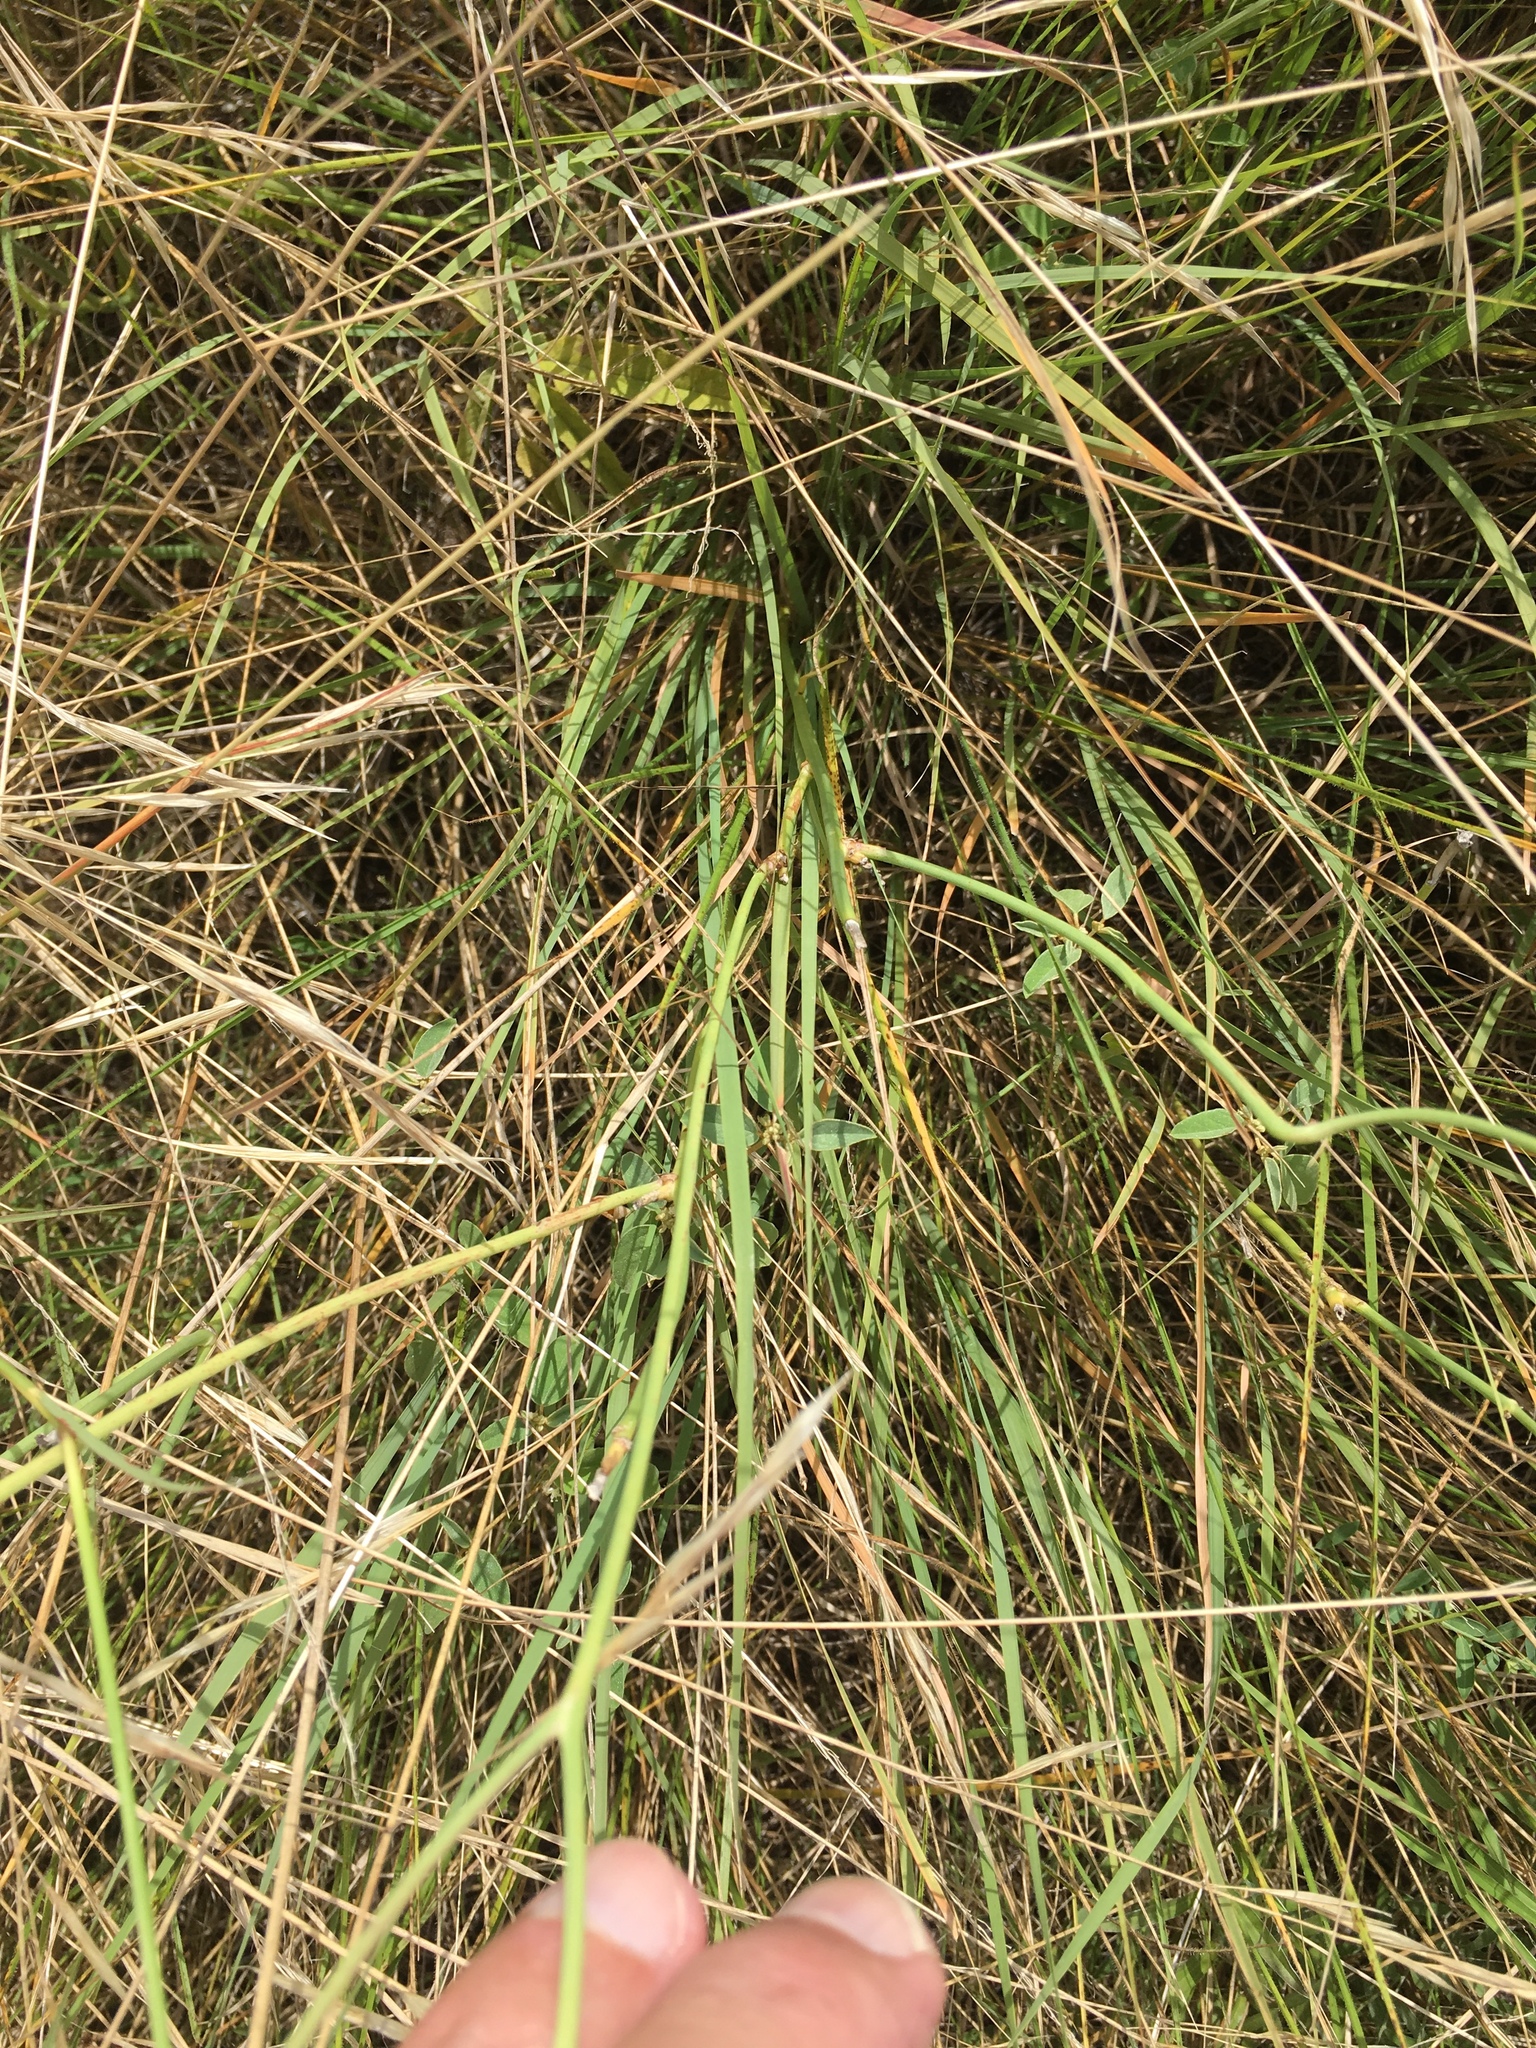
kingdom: Plantae
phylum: Tracheophyta
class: Magnoliopsida
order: Asterales
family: Asteraceae
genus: Lygodesmia
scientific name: Lygodesmia texana
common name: Texas skeleton-plant
